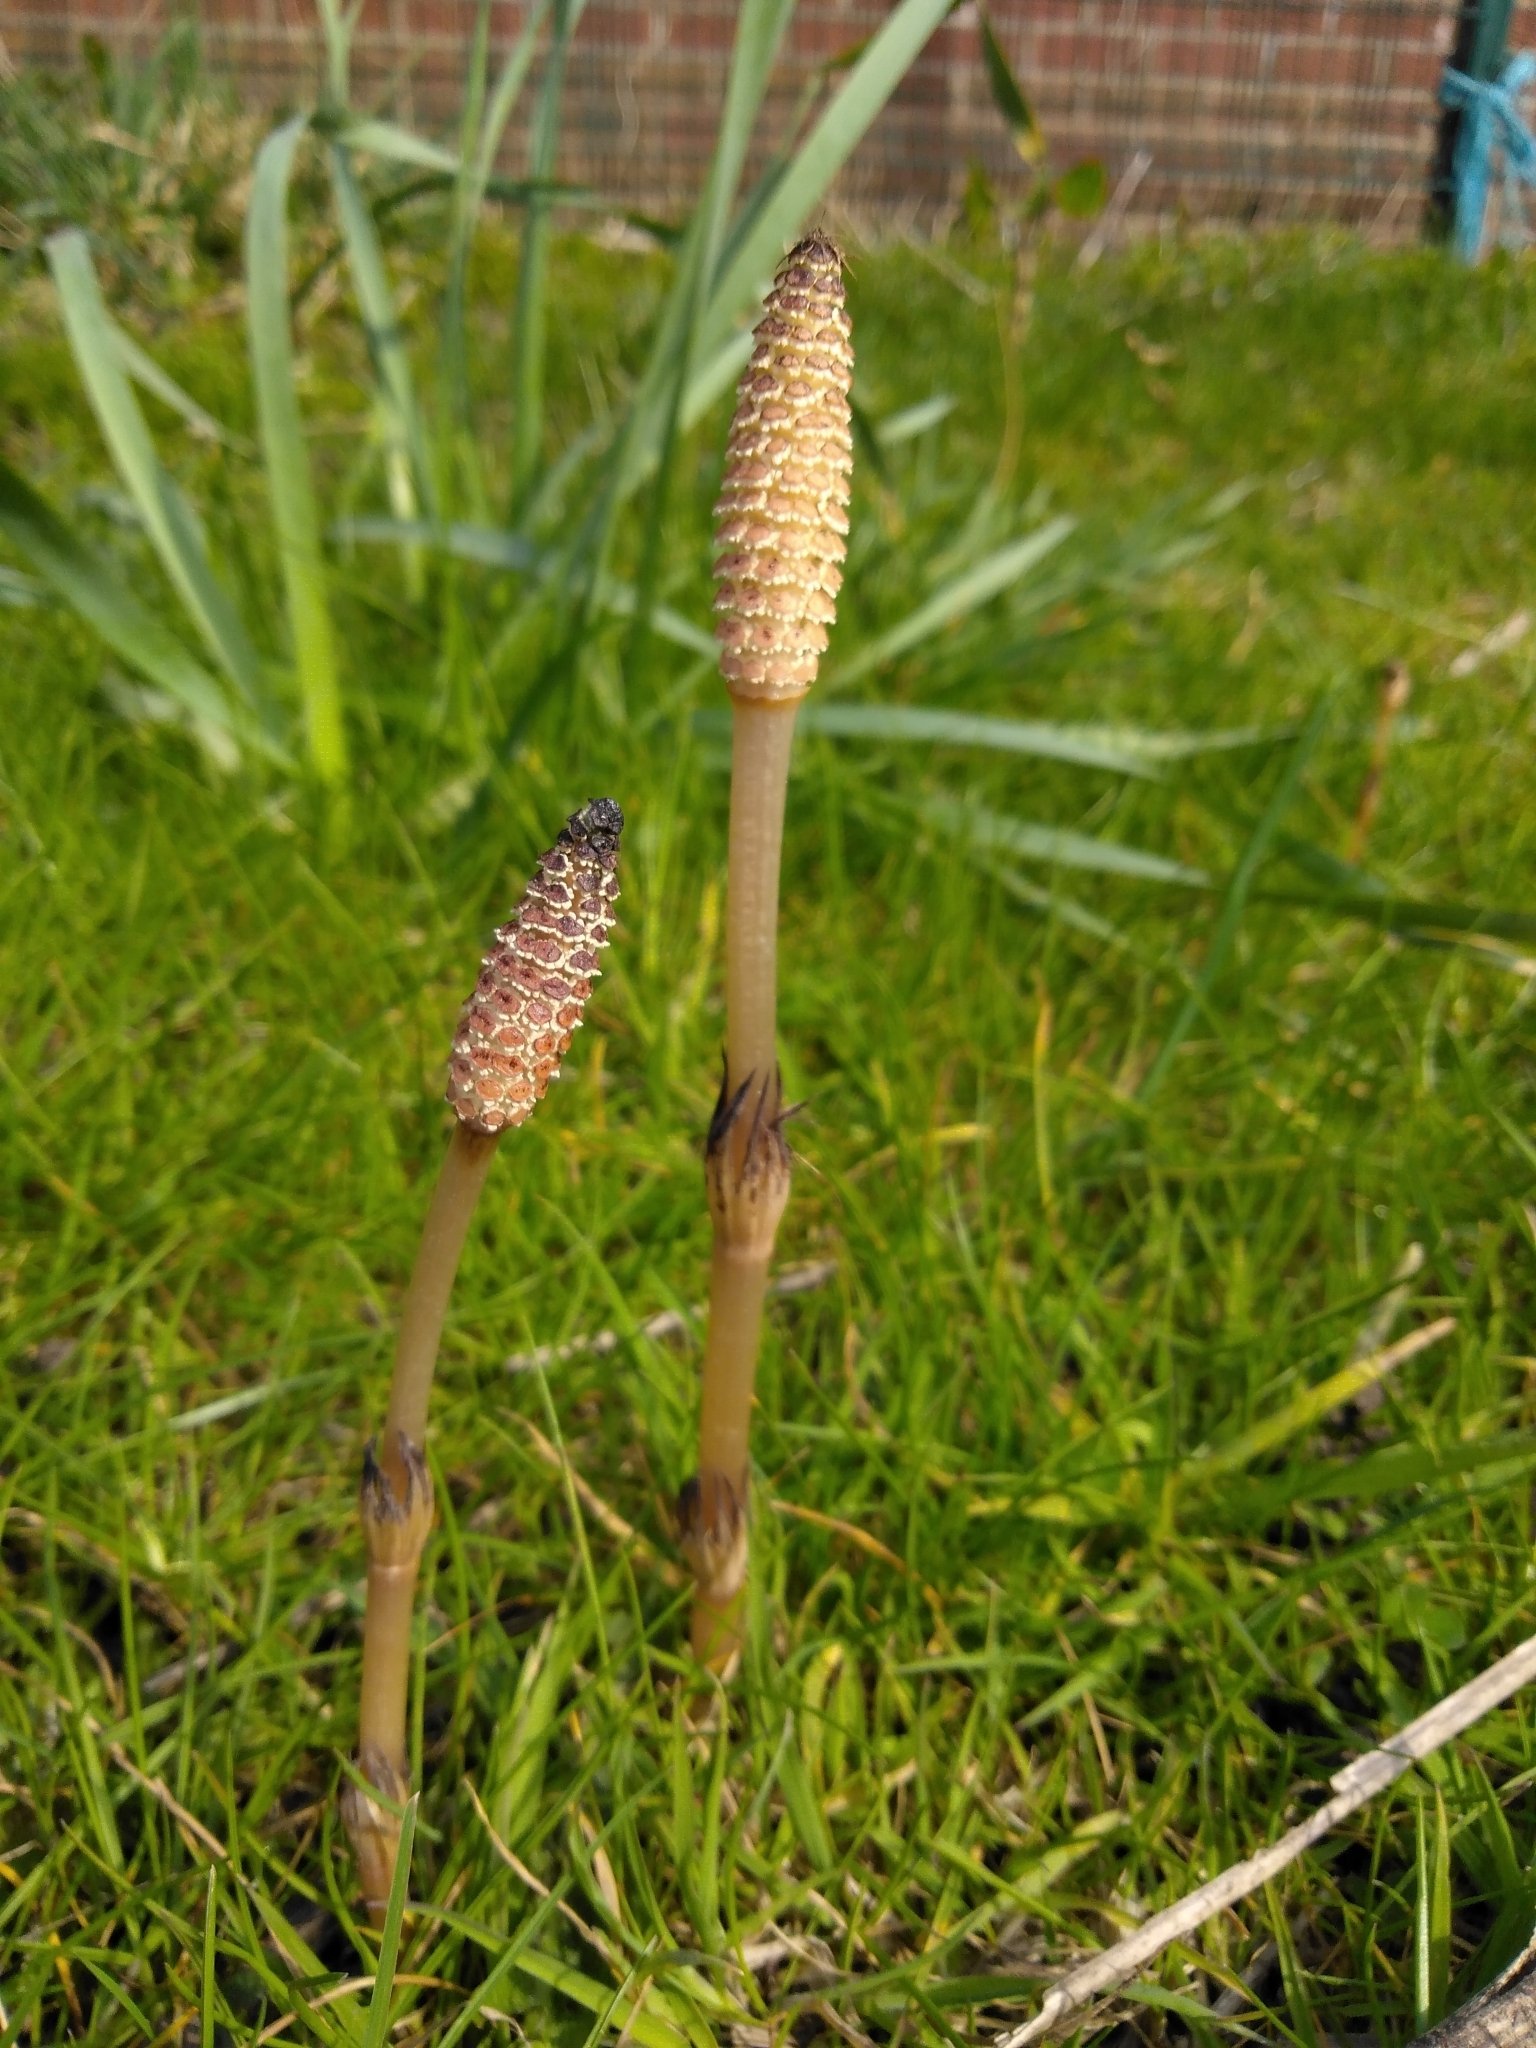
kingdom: Plantae
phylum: Tracheophyta
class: Polypodiopsida
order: Equisetales
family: Equisetaceae
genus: Equisetum
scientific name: Equisetum arvense
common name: Field horsetail
